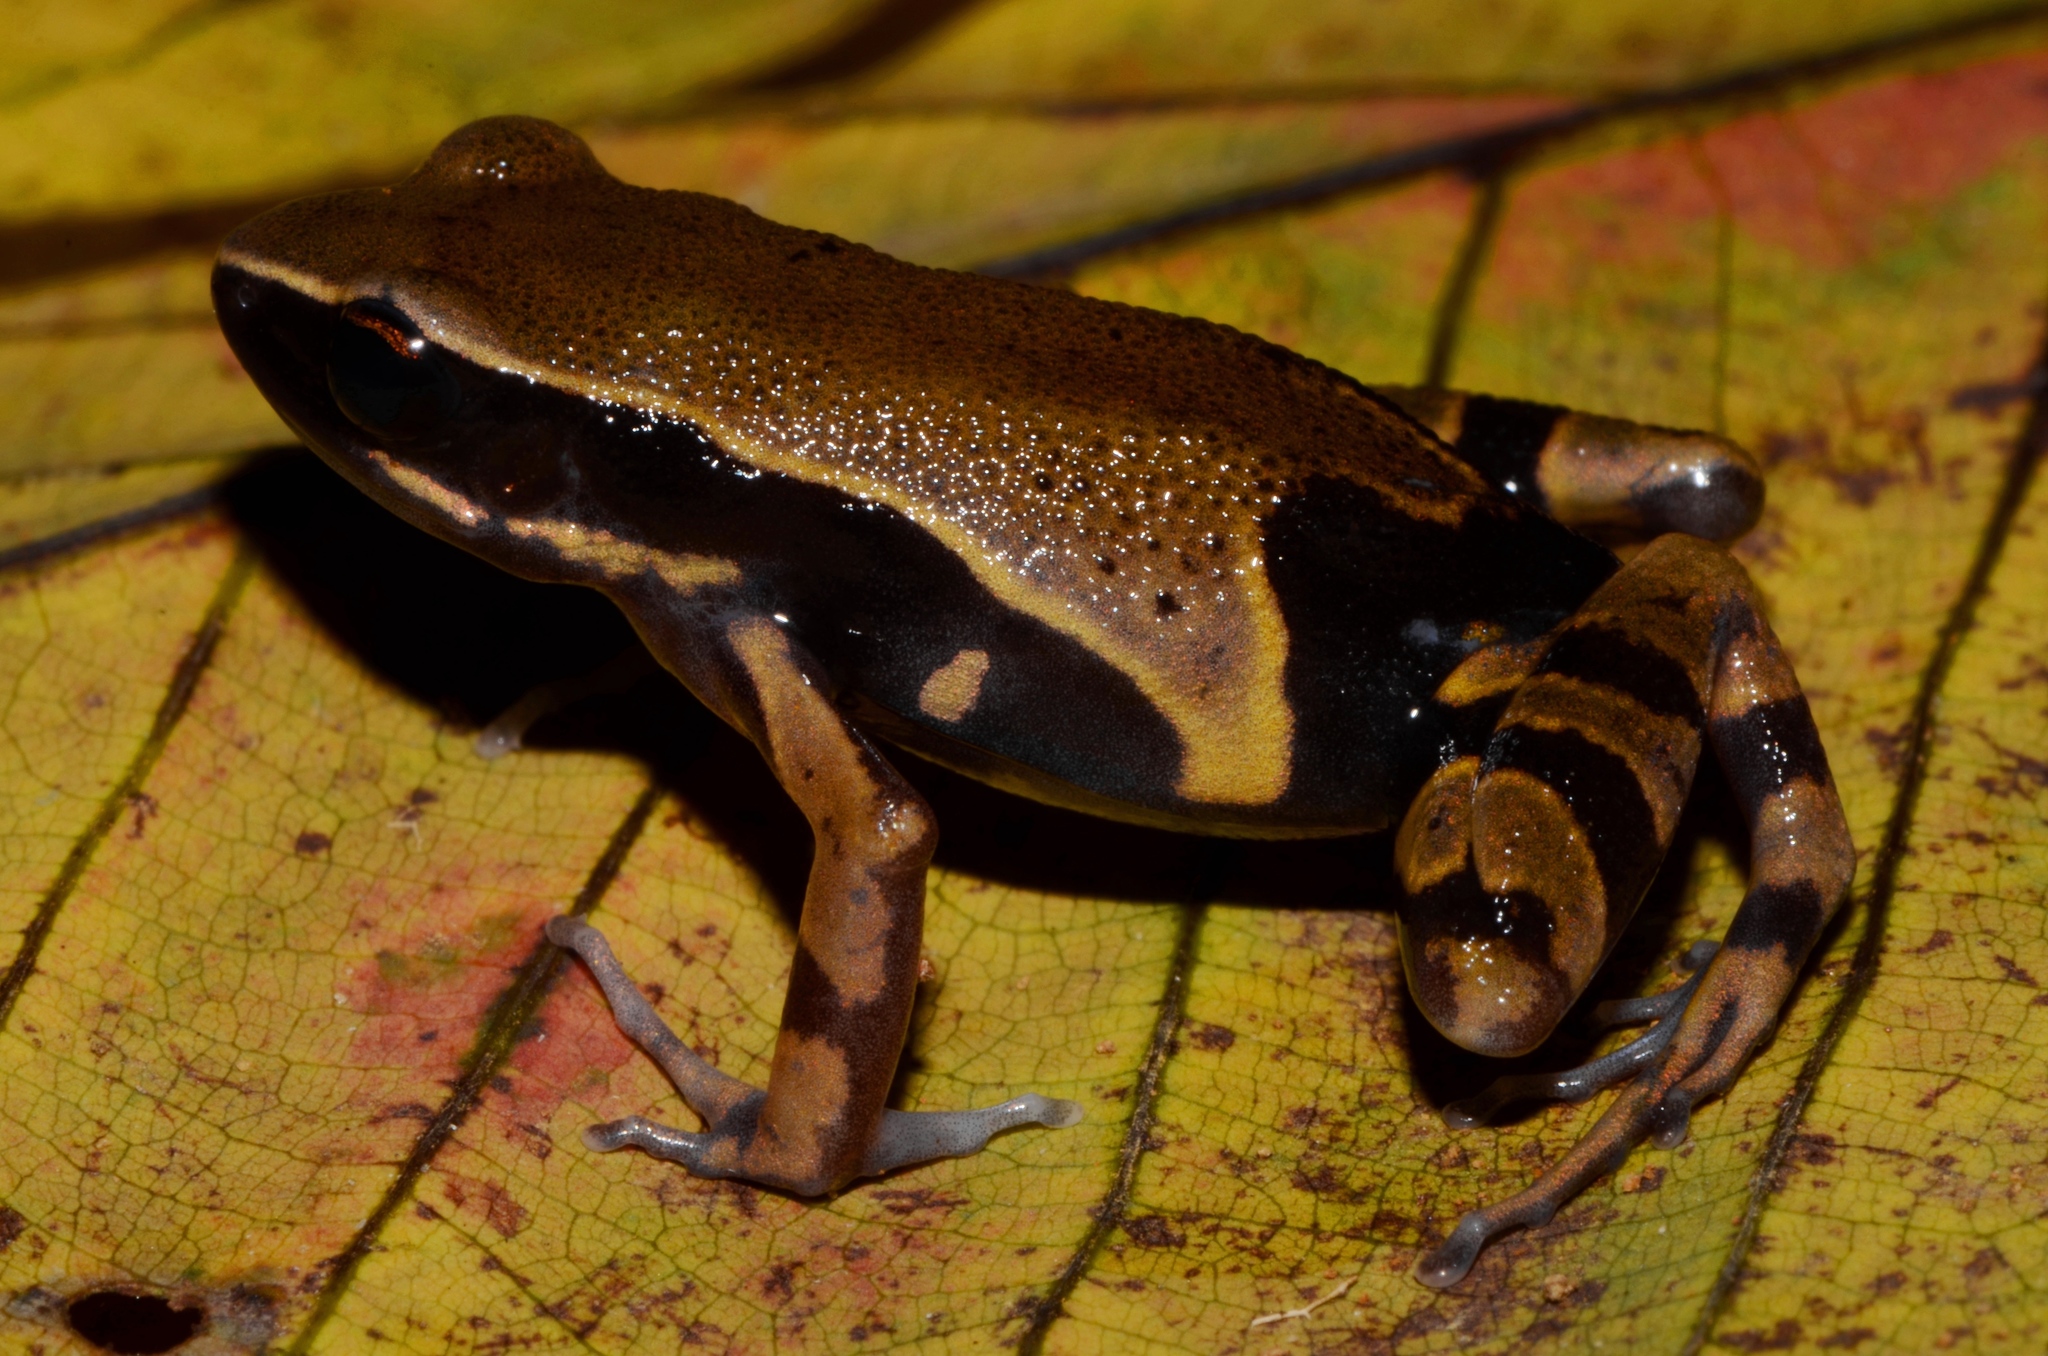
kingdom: Animalia
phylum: Chordata
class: Amphibia
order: Anura
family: Arthroleptidae
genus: Cardioglossa
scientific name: Cardioglossa annulata
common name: Annulated long-fingered frog
